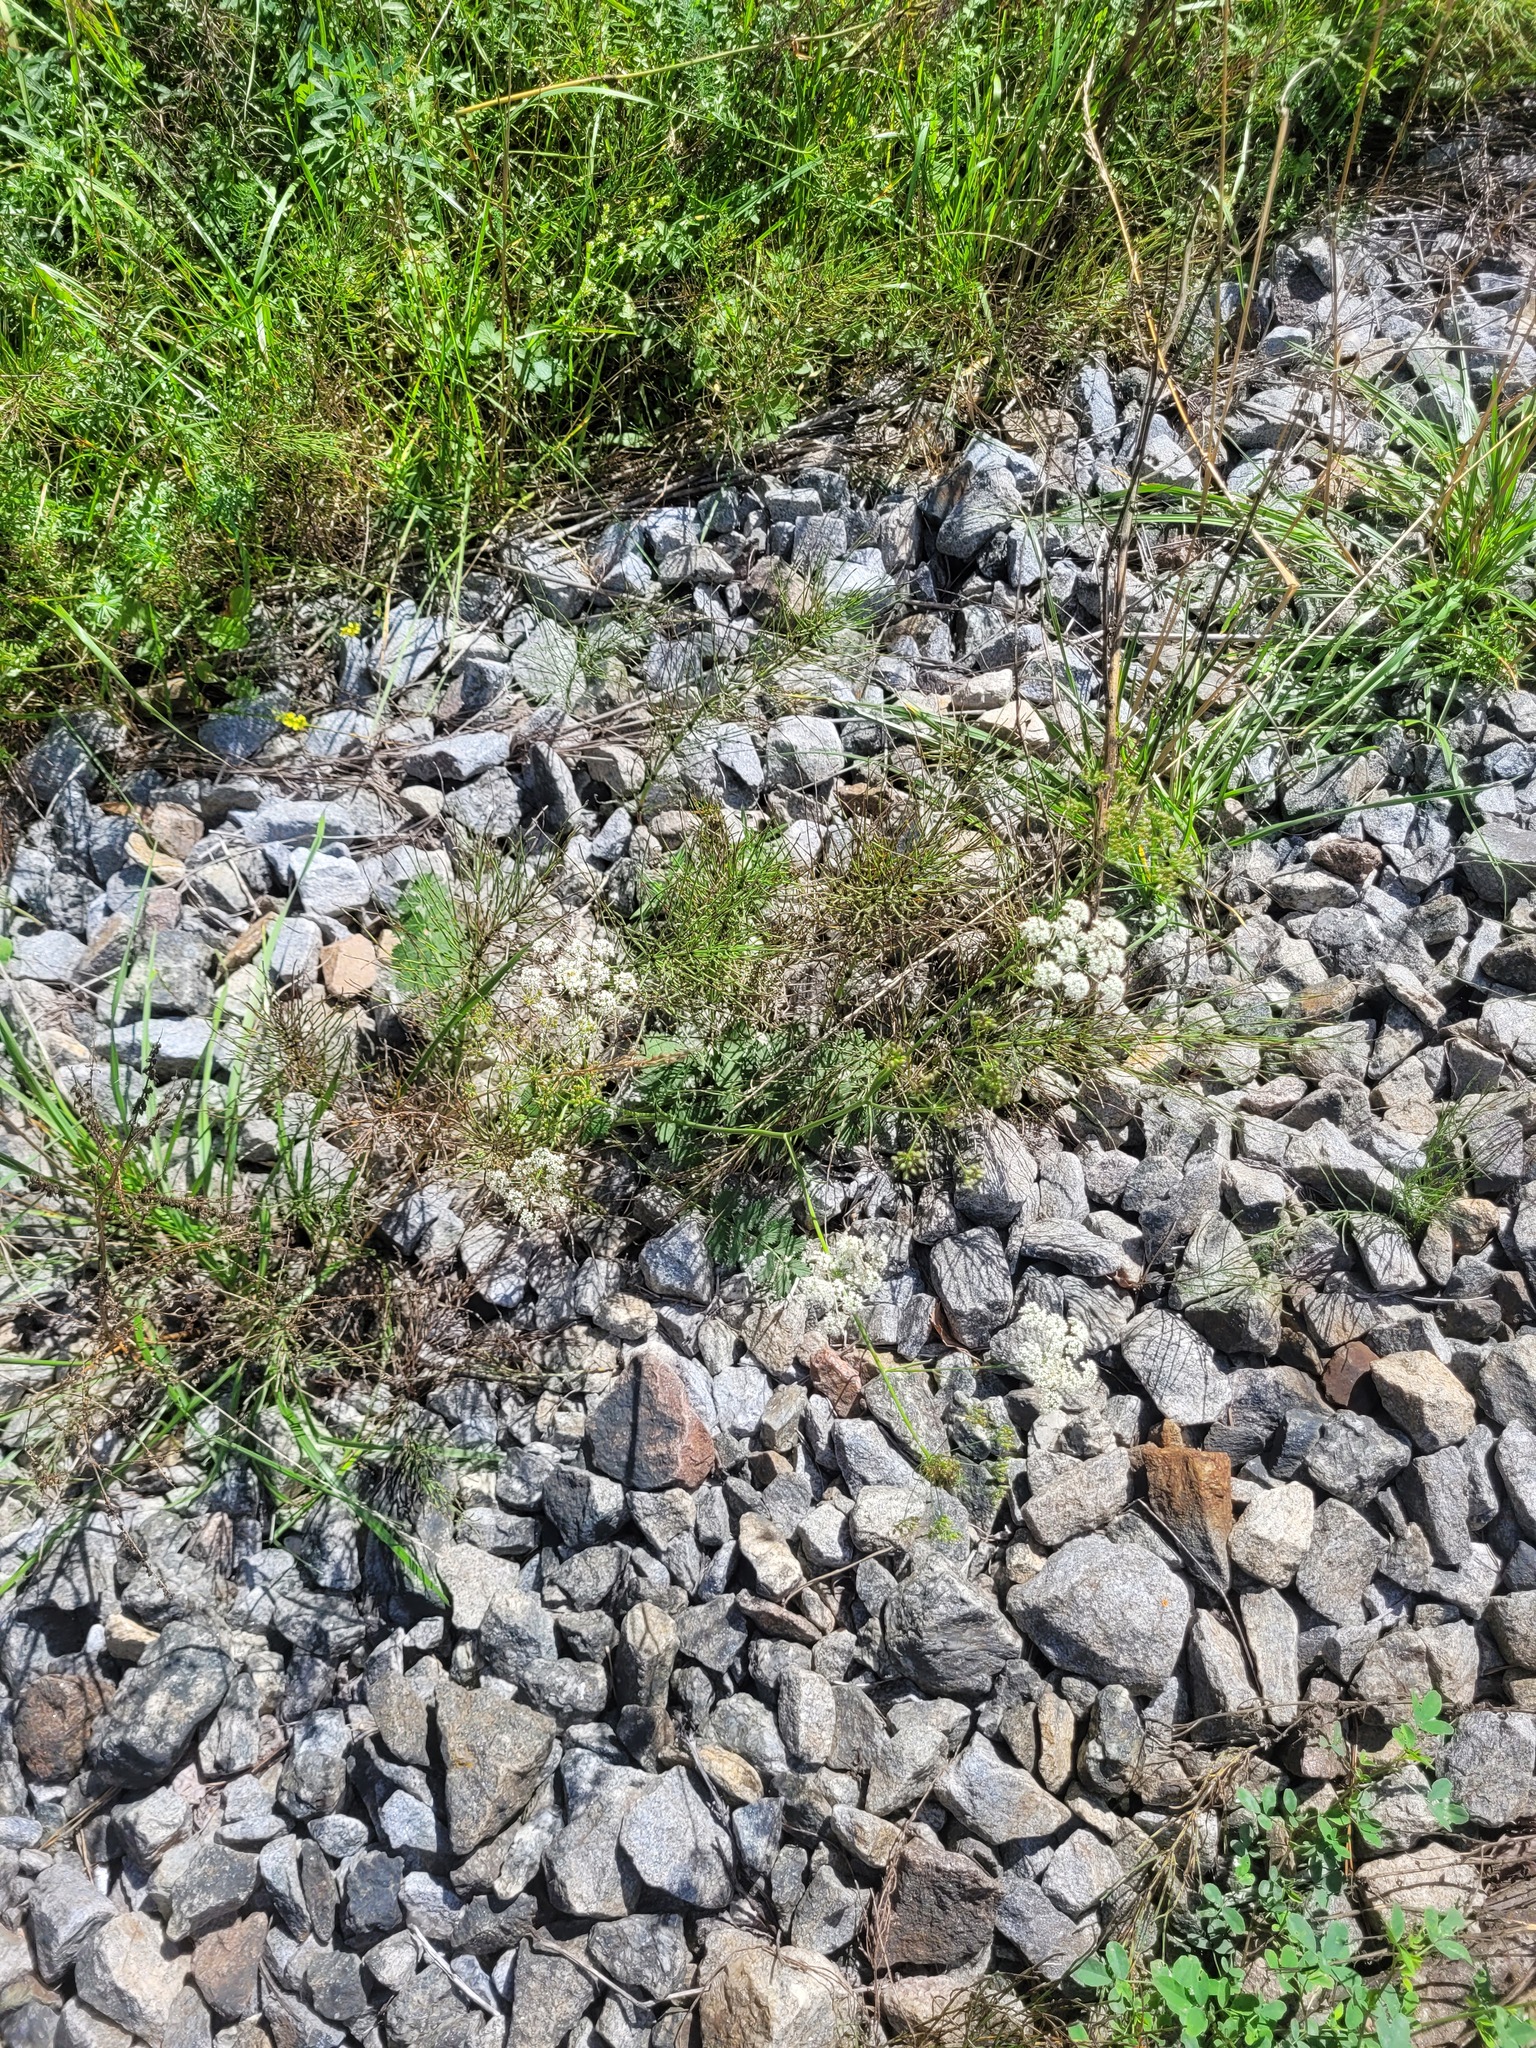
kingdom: Plantae
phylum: Tracheophyta
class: Magnoliopsida
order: Apiales
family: Apiaceae
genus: Pimpinella
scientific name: Pimpinella saxifraga
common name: Burnet-saxifrage
